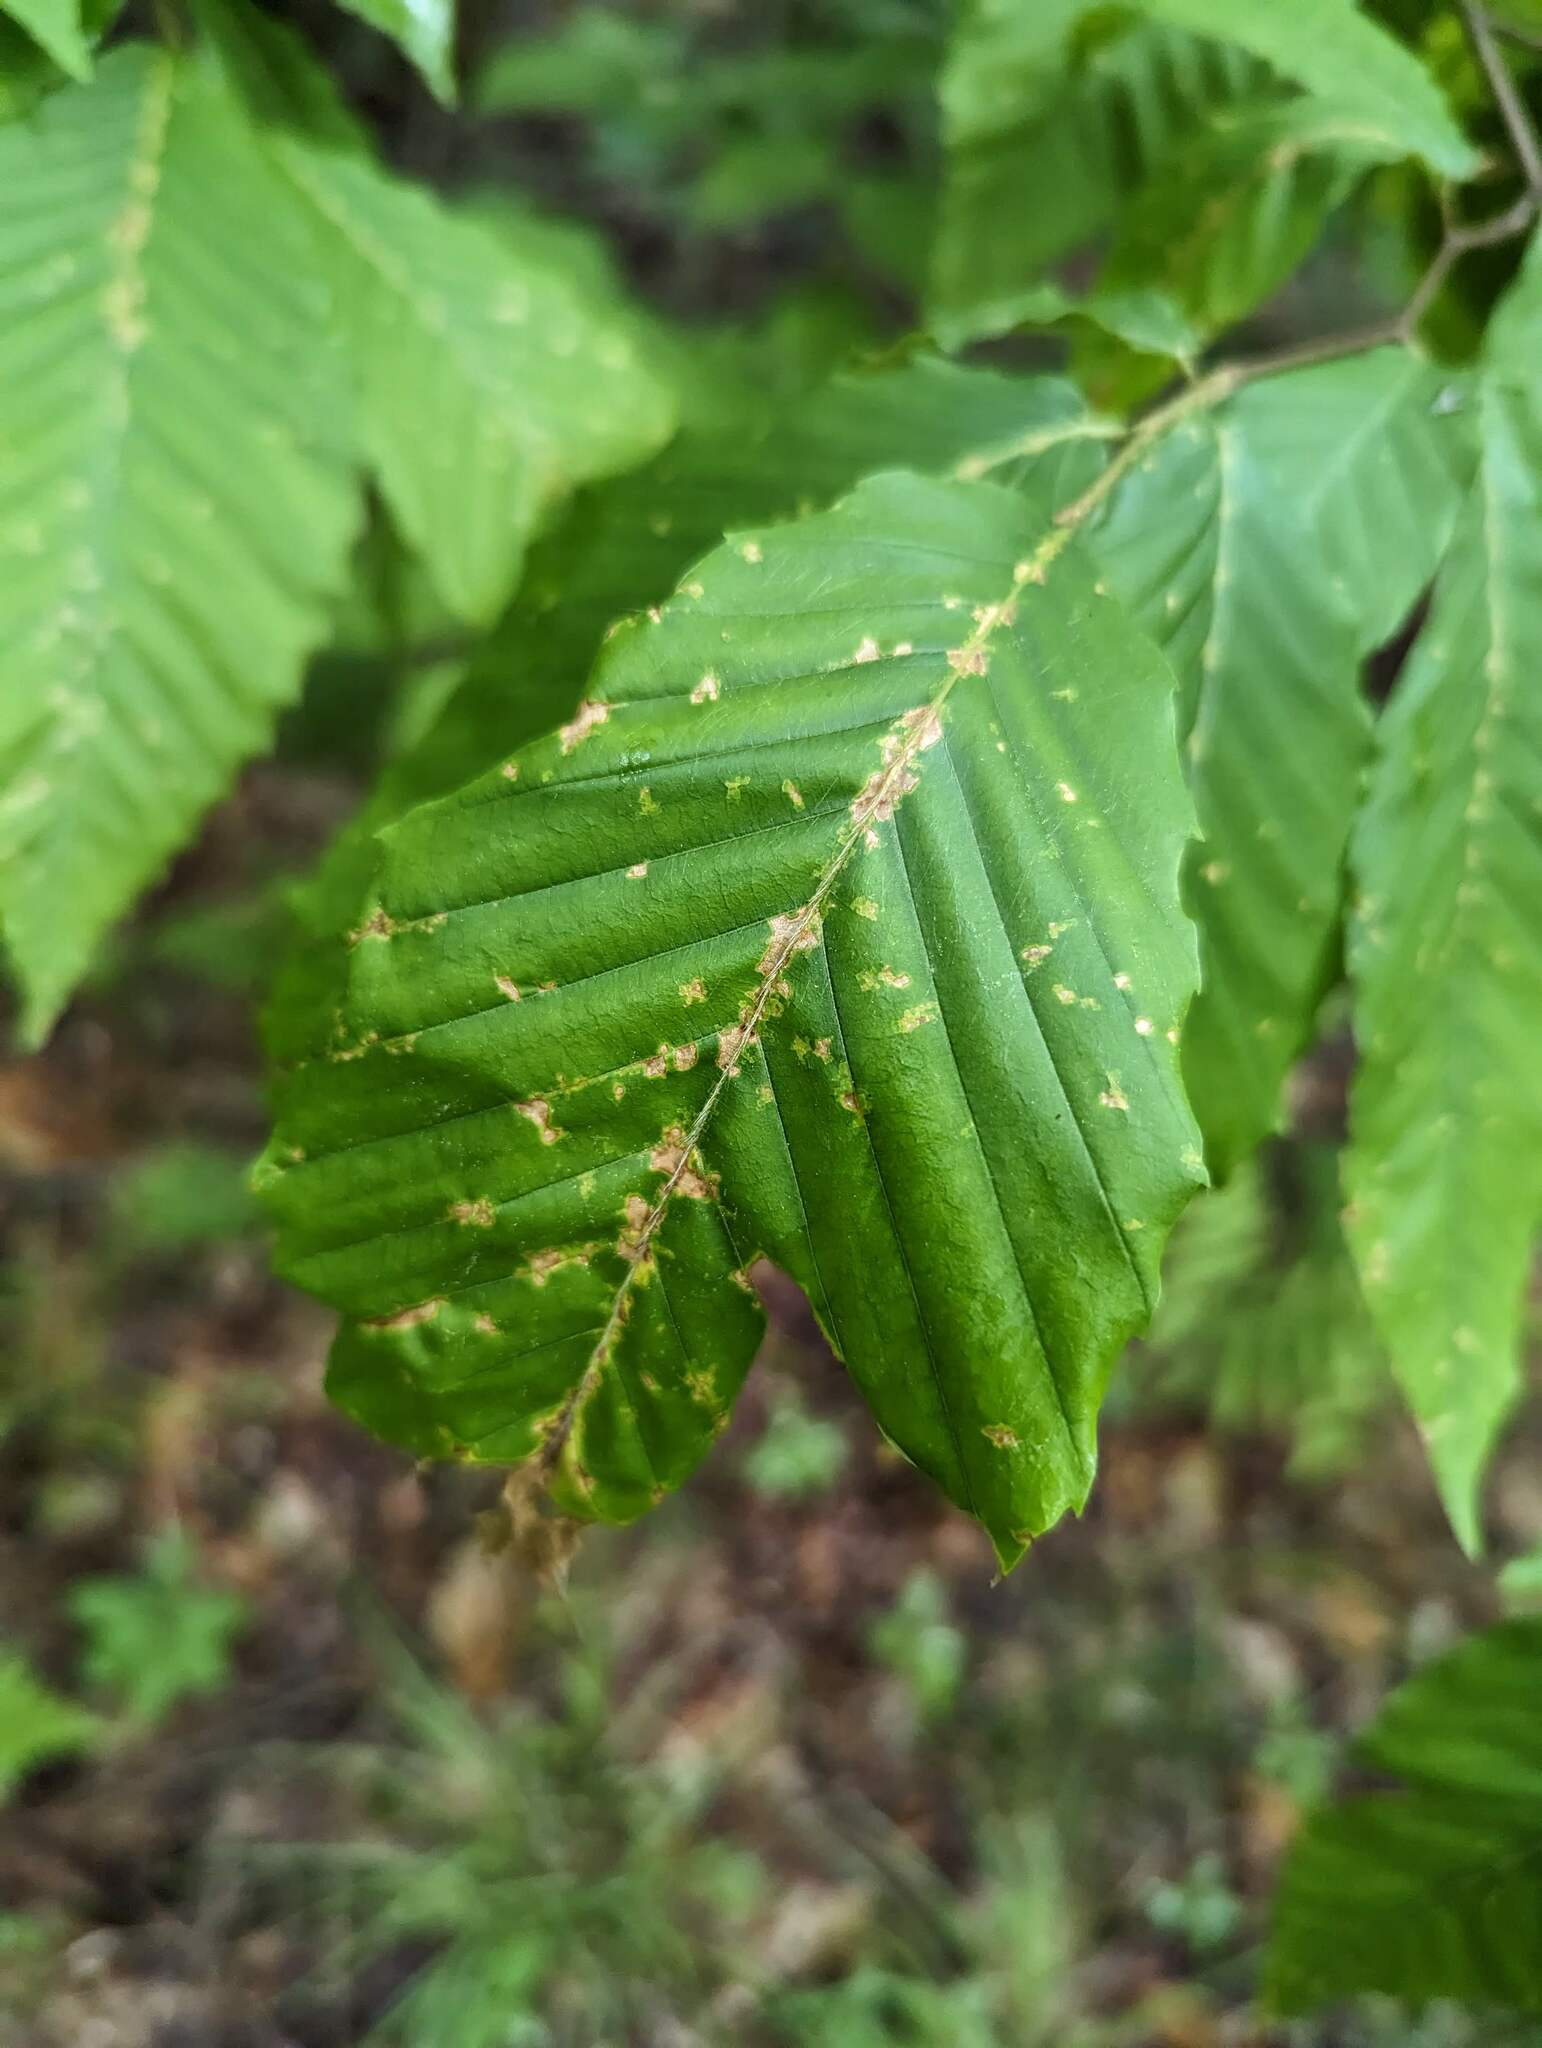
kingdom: Animalia
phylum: Arthropoda
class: Arachnida
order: Trombidiformes
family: Eriophyidae
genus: Acalitus
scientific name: Acalitus
